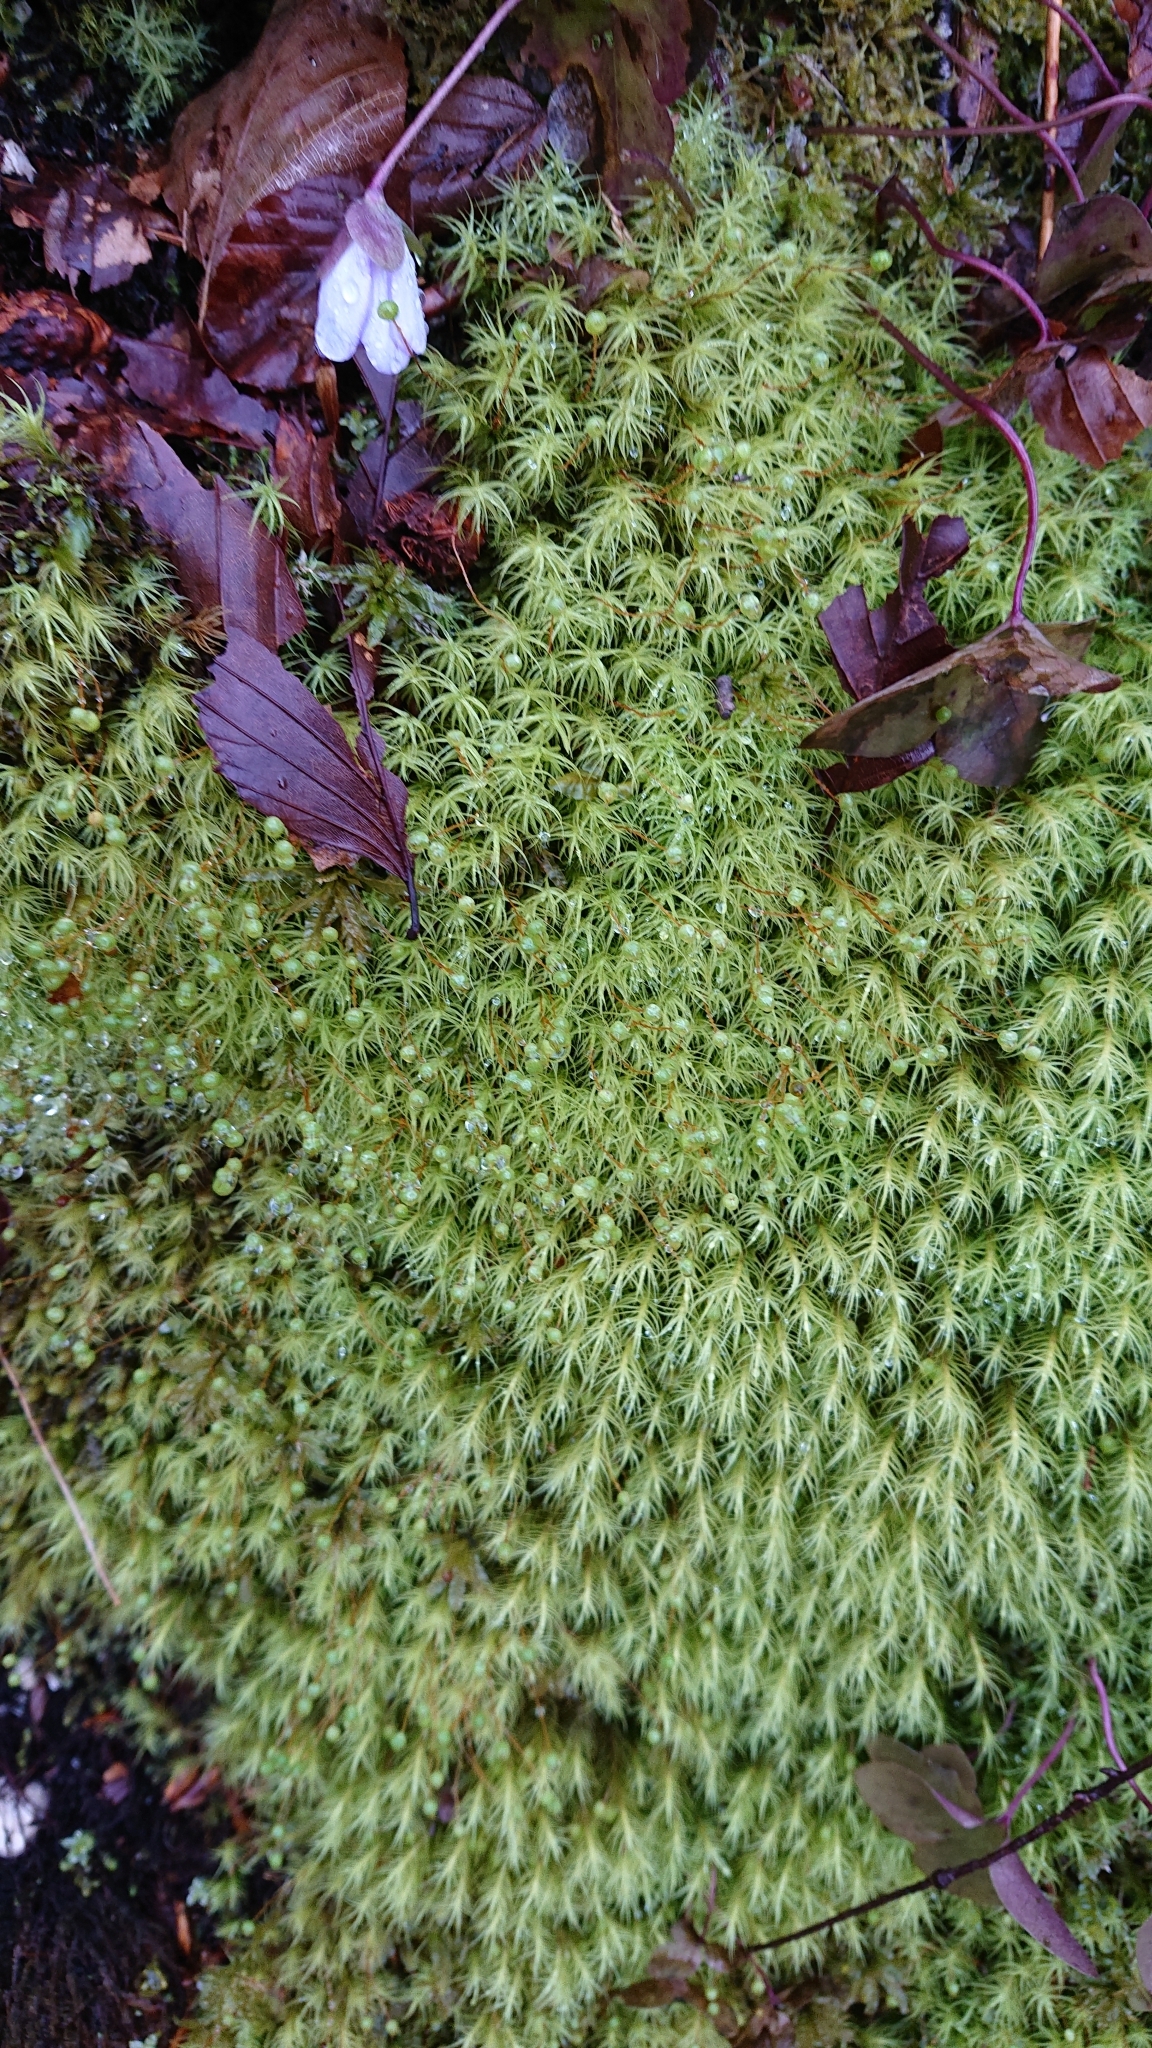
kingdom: Plantae
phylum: Bryophyta
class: Bryopsida
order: Bartramiales
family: Bartramiaceae
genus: Bartramia
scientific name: Bartramia ithyphylla
